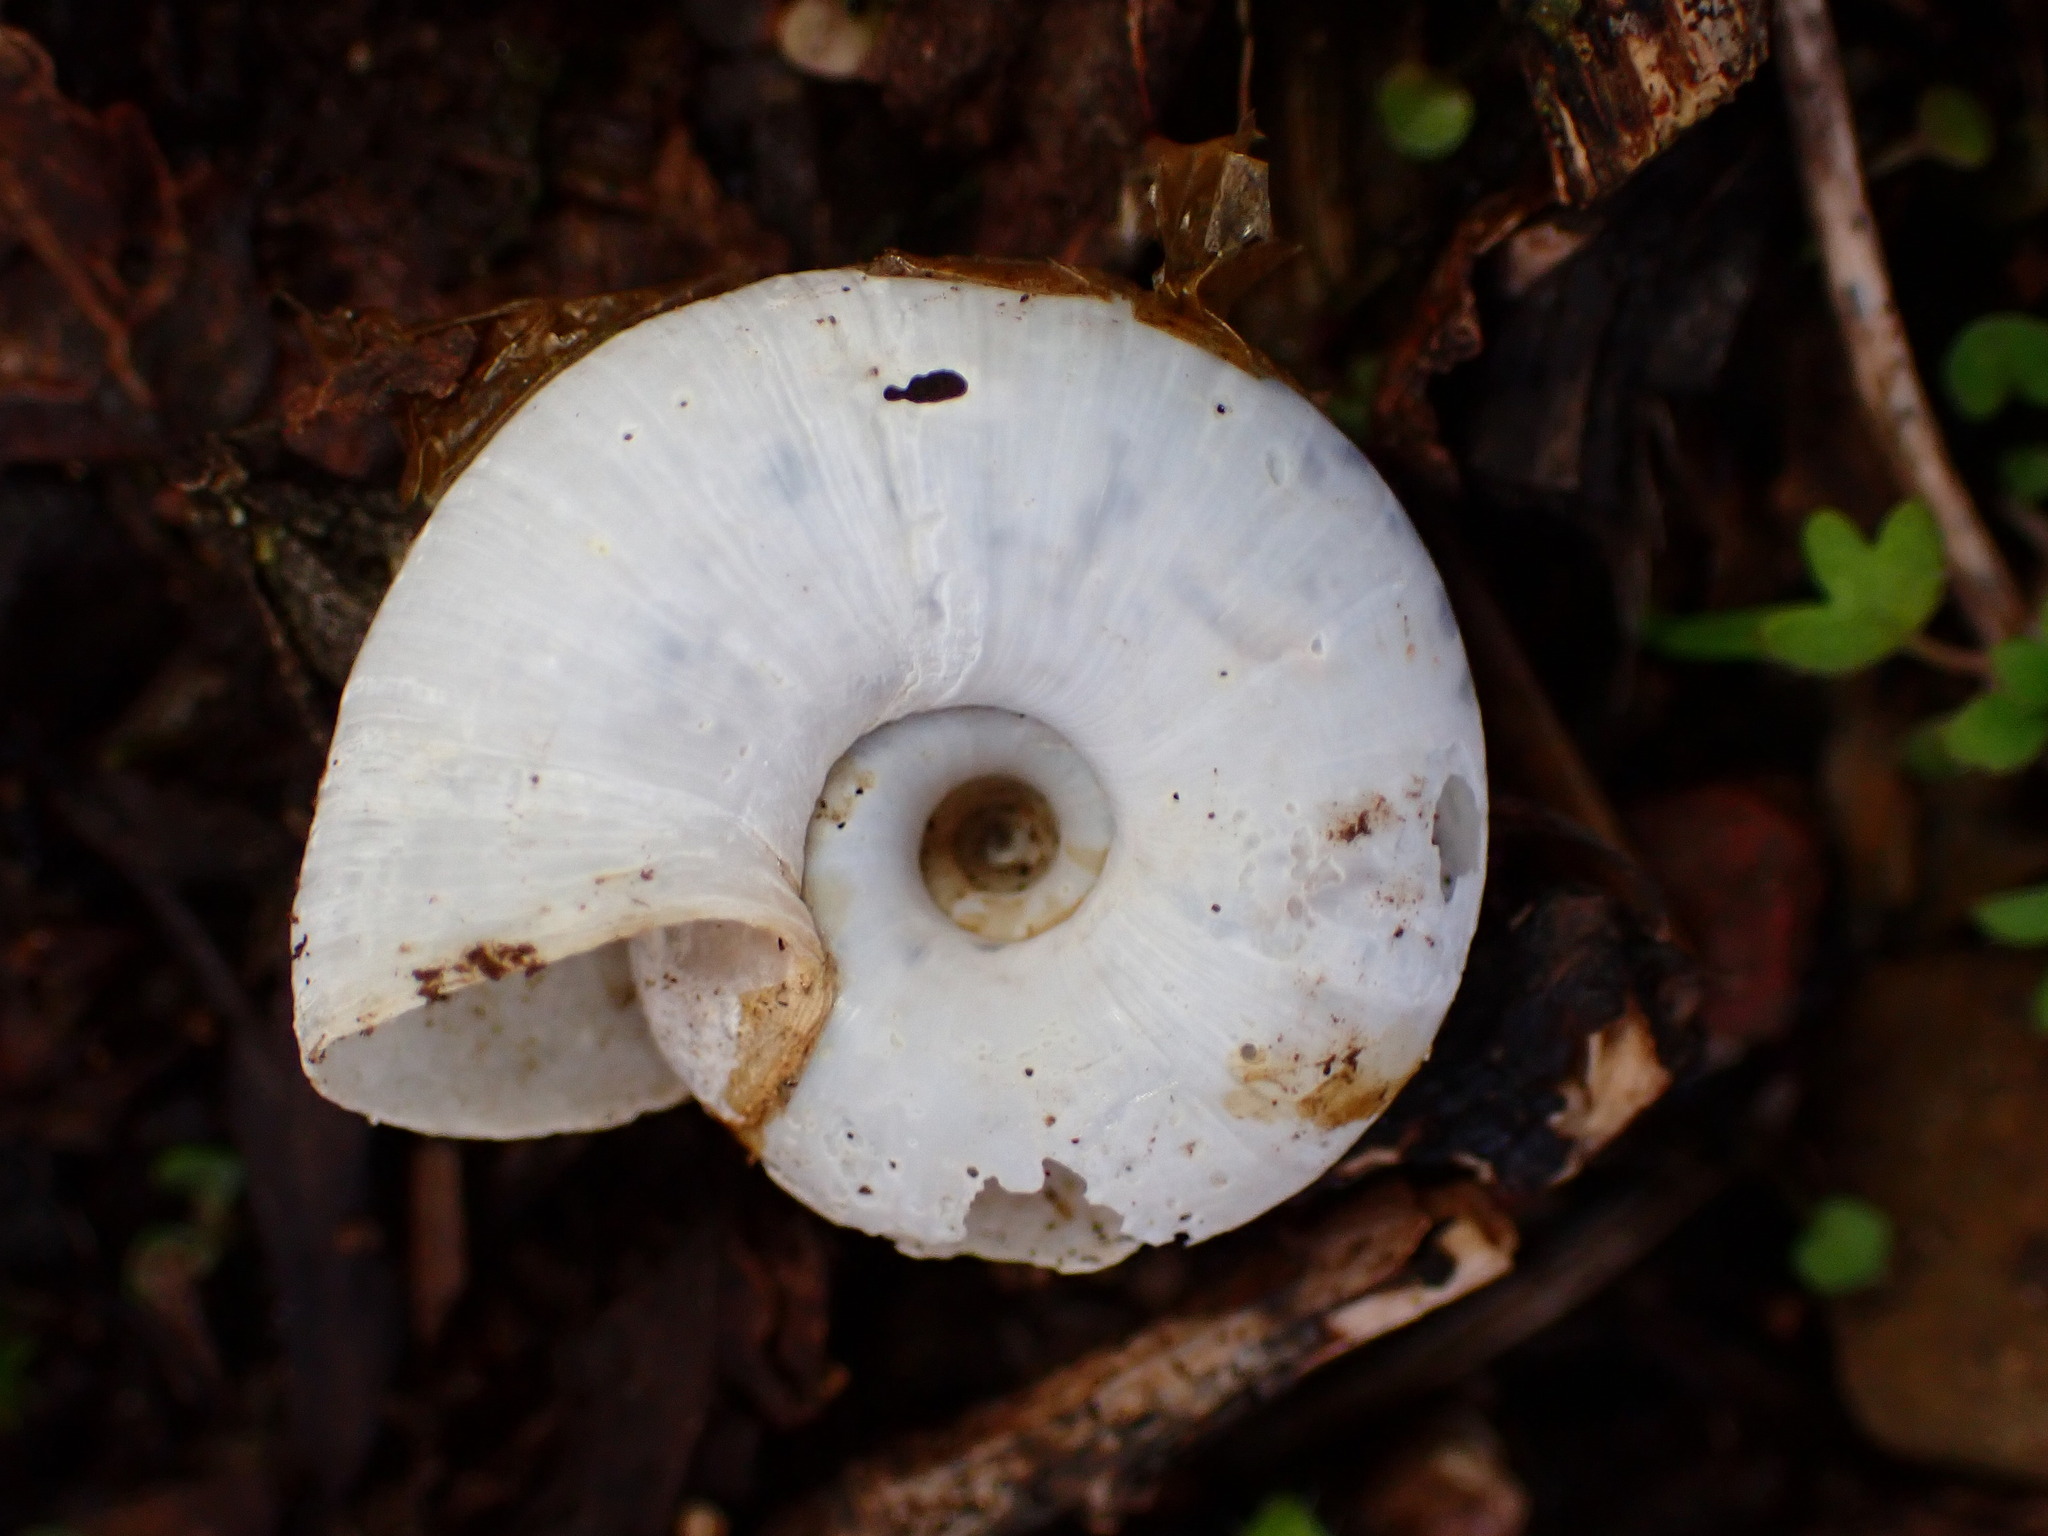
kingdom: Animalia
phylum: Mollusca
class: Gastropoda
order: Stylommatophora
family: Haplotrematidae
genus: Haplotrema
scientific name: Haplotrema minimum
